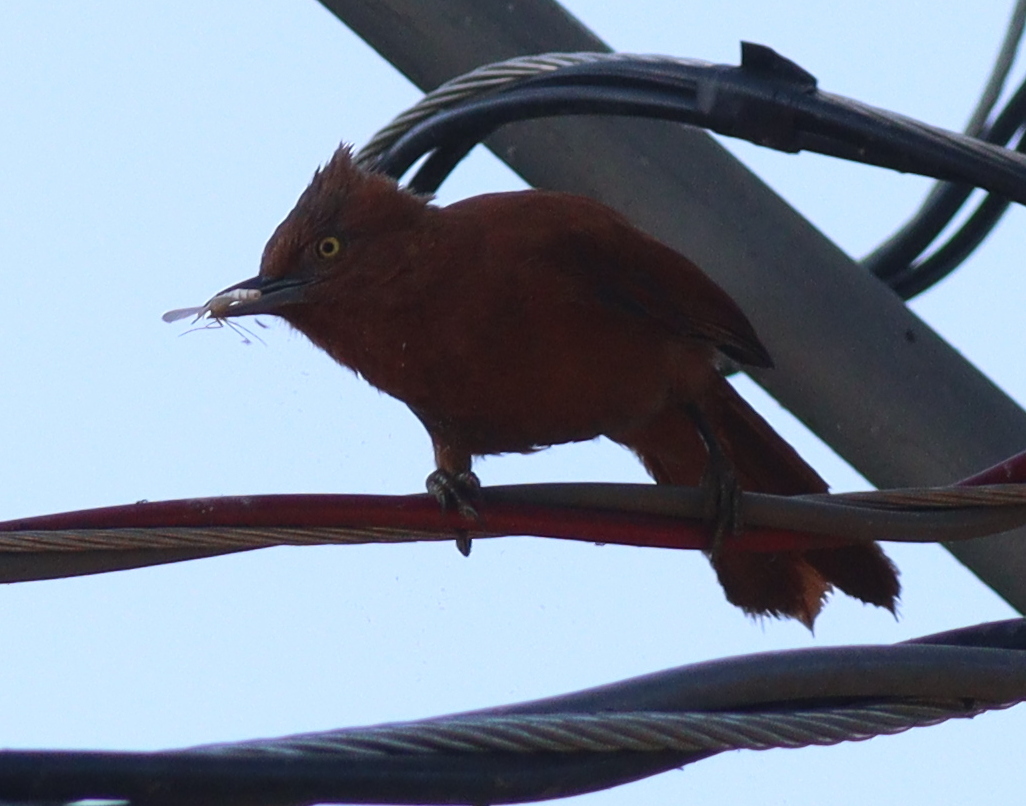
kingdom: Animalia
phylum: Chordata
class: Aves
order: Passeriformes
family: Furnariidae
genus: Pseudoseisura
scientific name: Pseudoseisura unirufa
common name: Grey-crested cacholote
